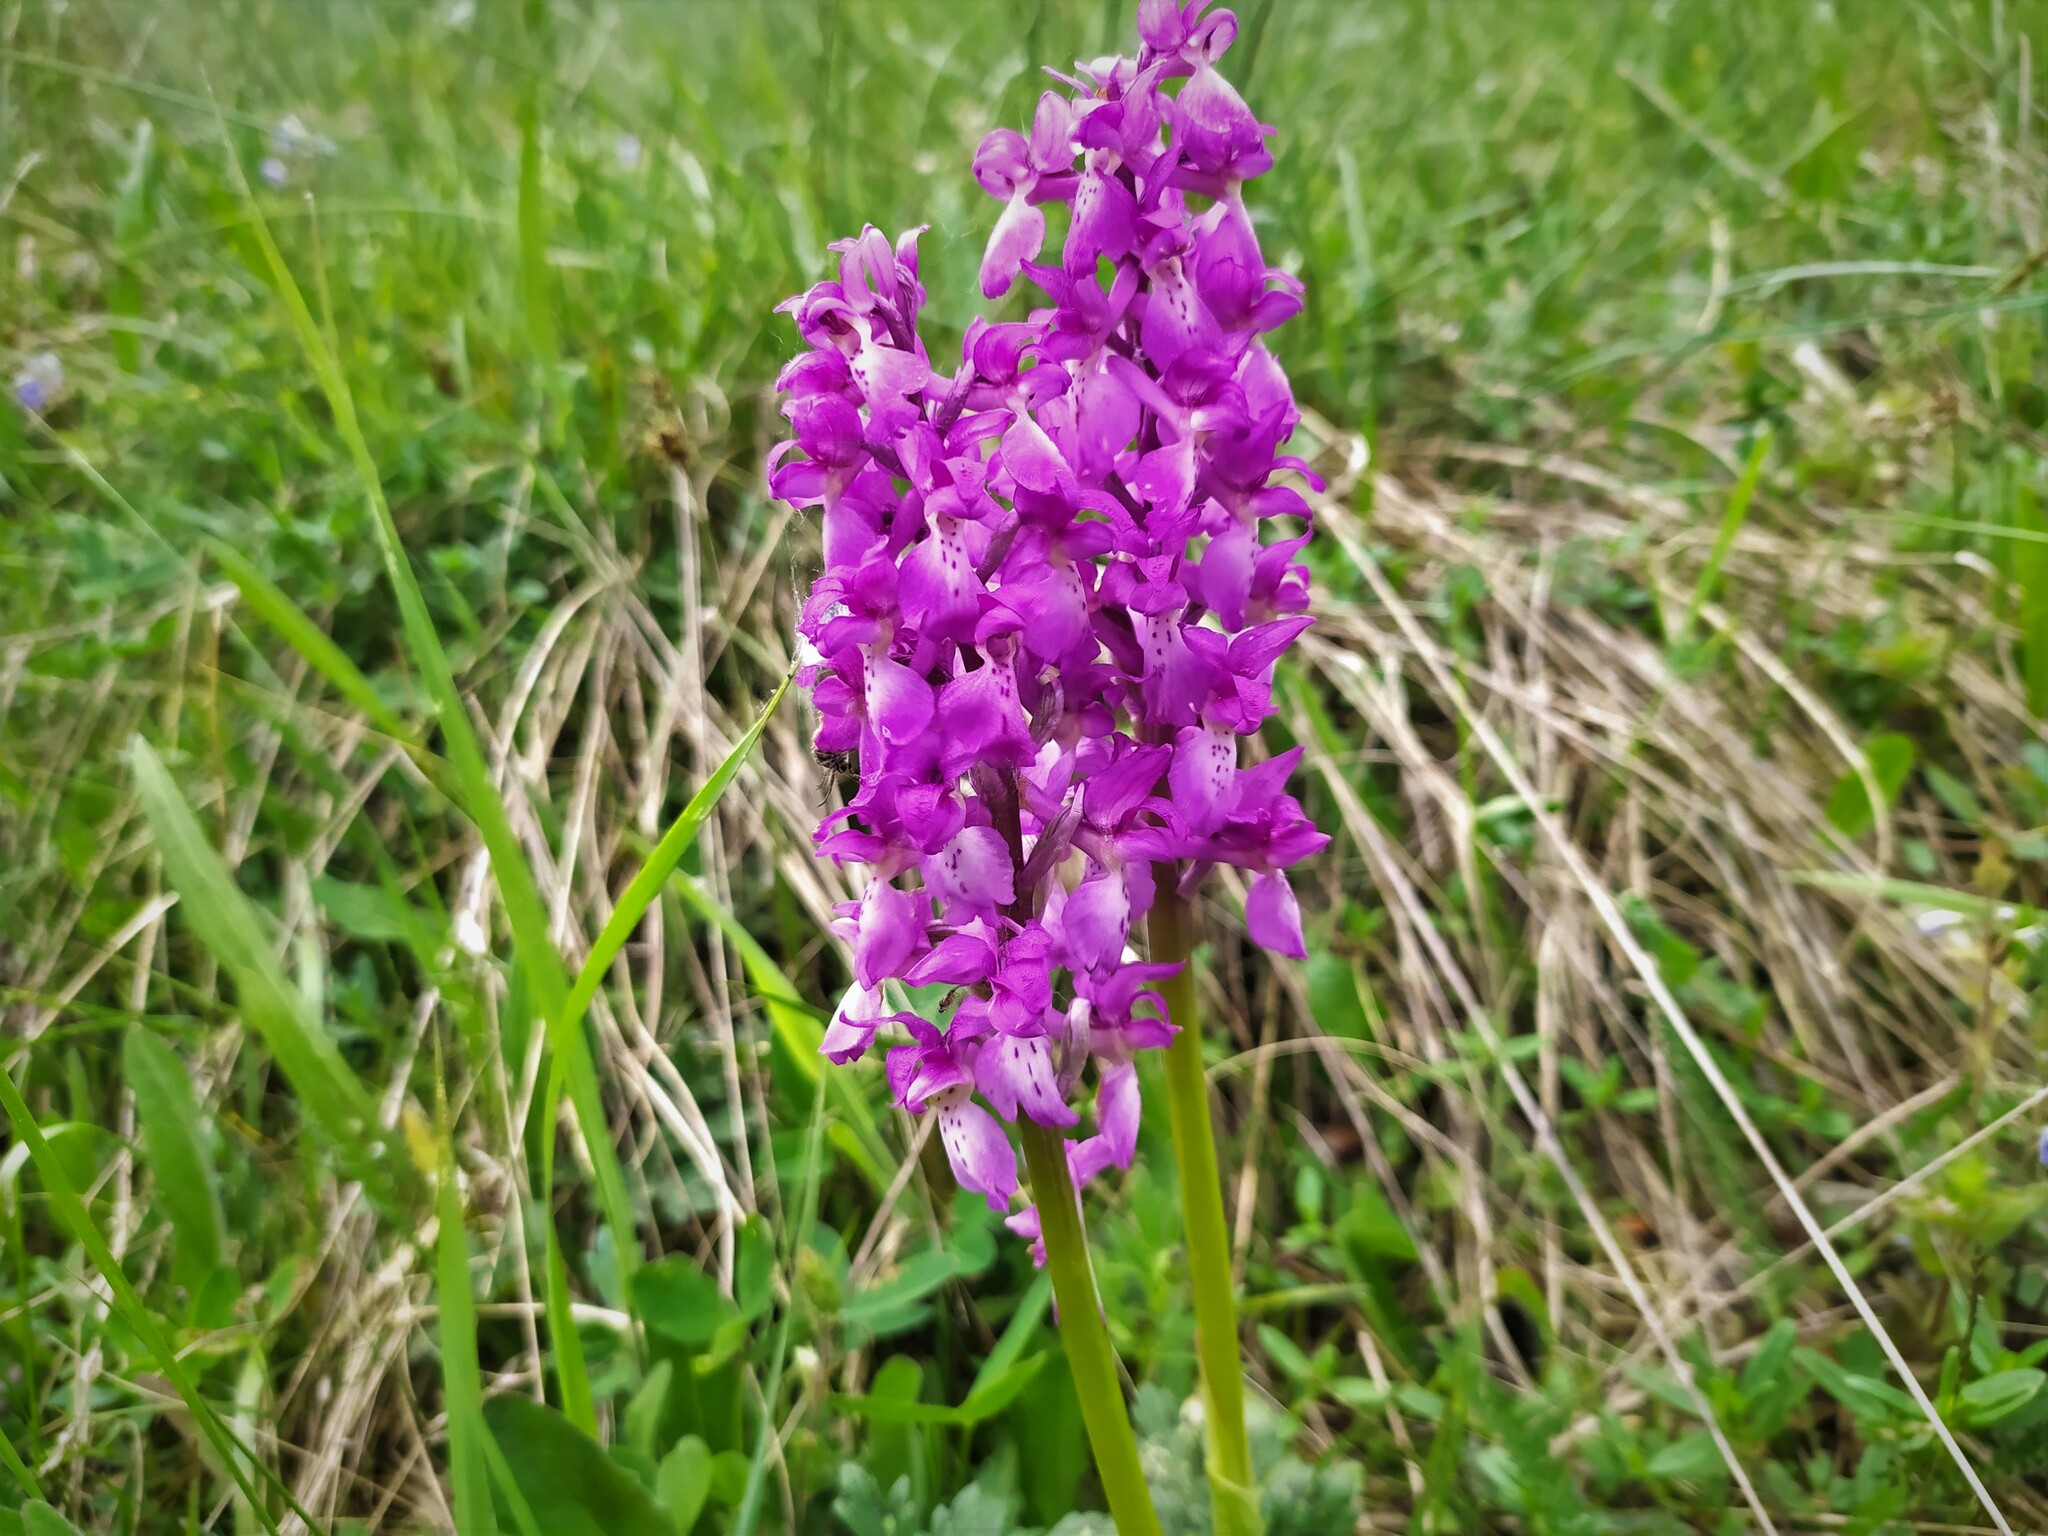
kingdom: Plantae
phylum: Tracheophyta
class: Liliopsida
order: Asparagales
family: Orchidaceae
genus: Orchis
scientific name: Orchis mascula
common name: Early-purple orchid
